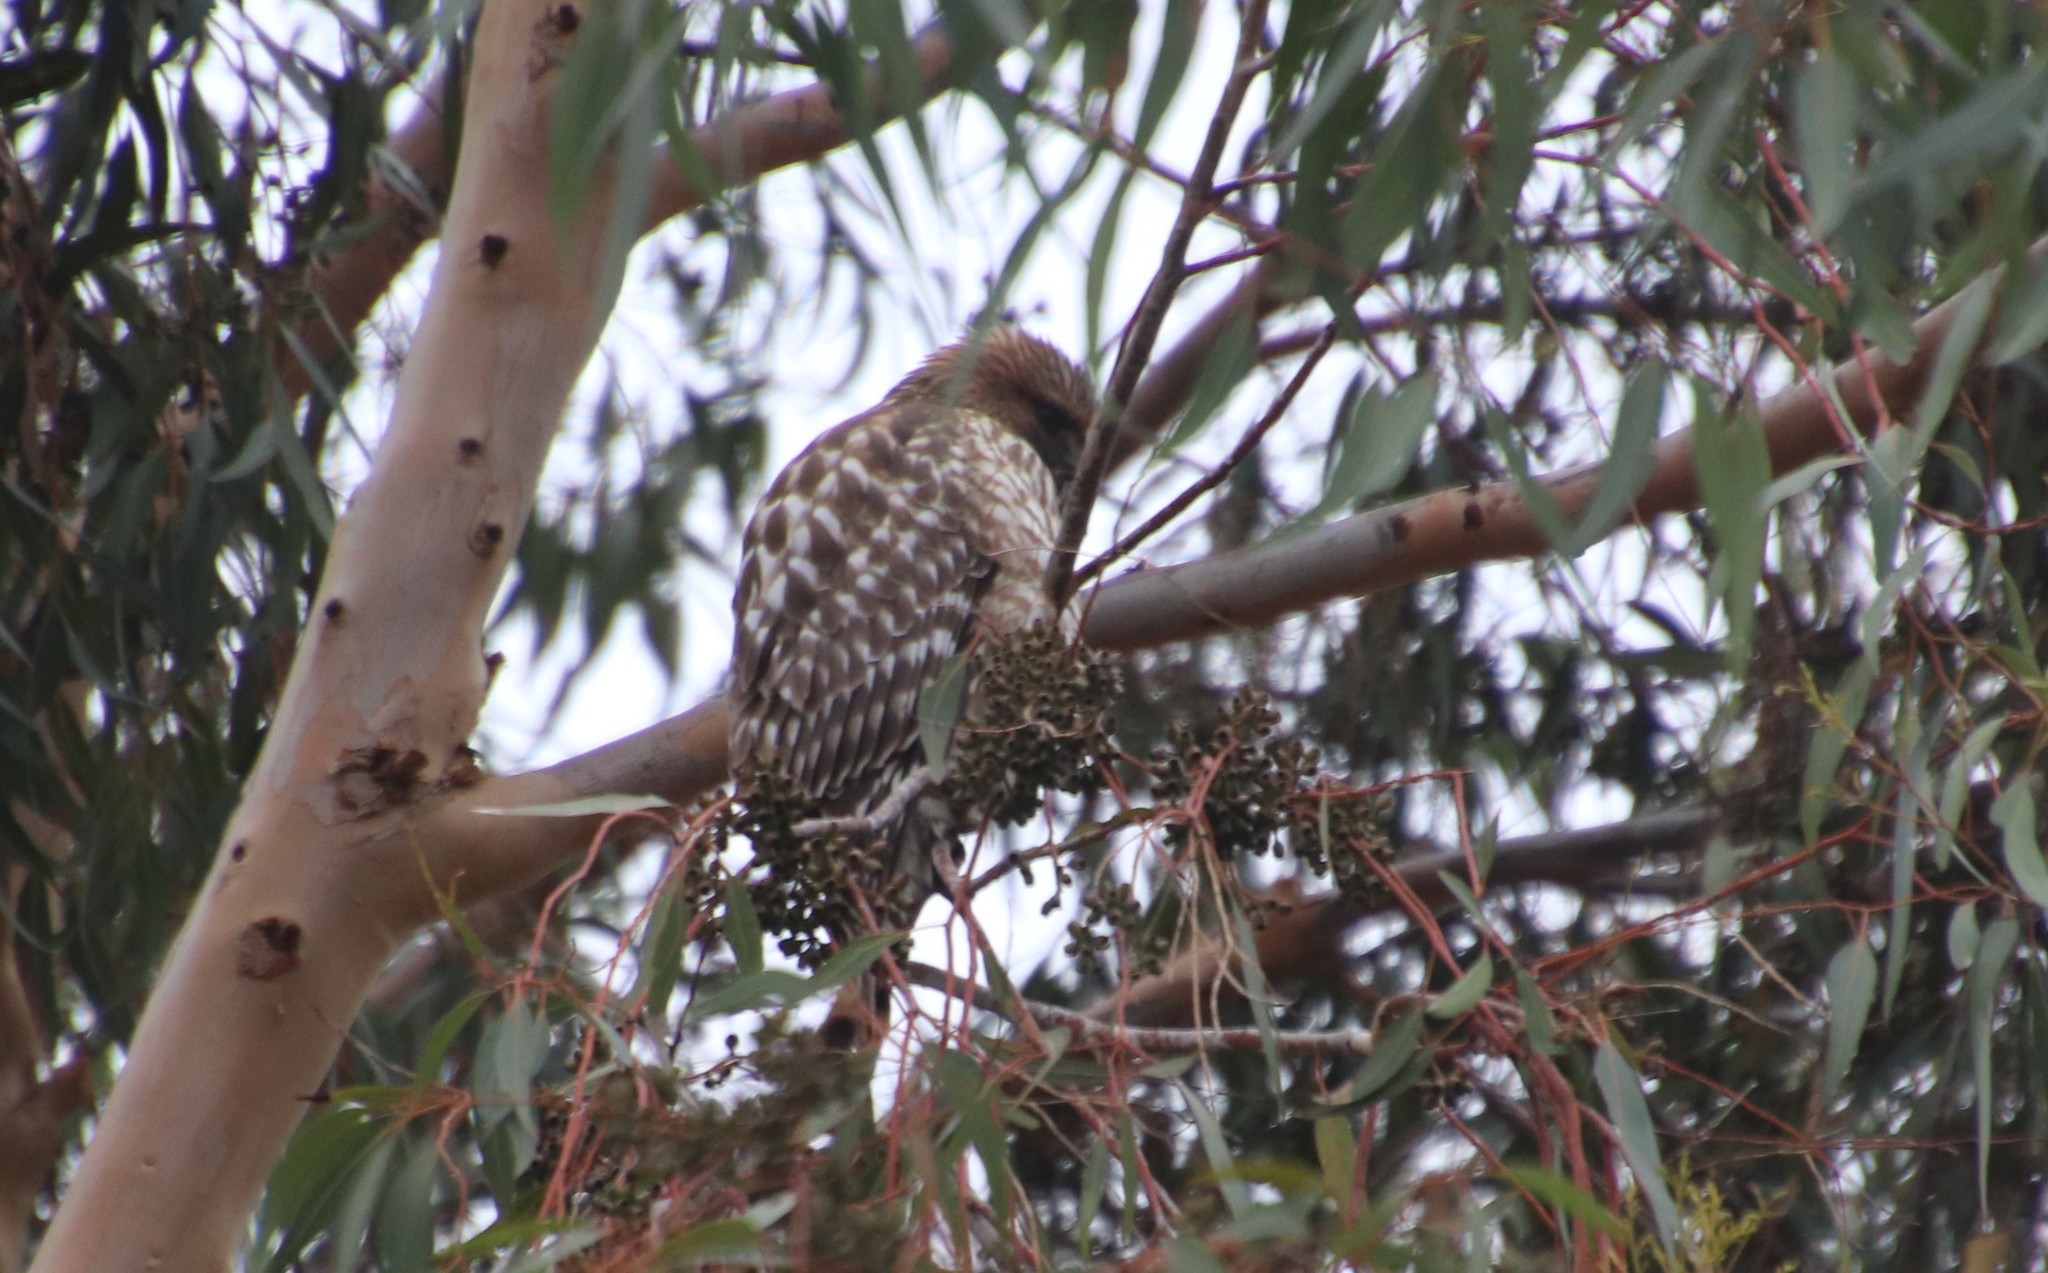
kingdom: Animalia
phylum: Chordata
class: Aves
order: Accipitriformes
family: Accipitridae
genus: Buteo
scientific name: Buteo lineatus
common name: Red-shouldered hawk
